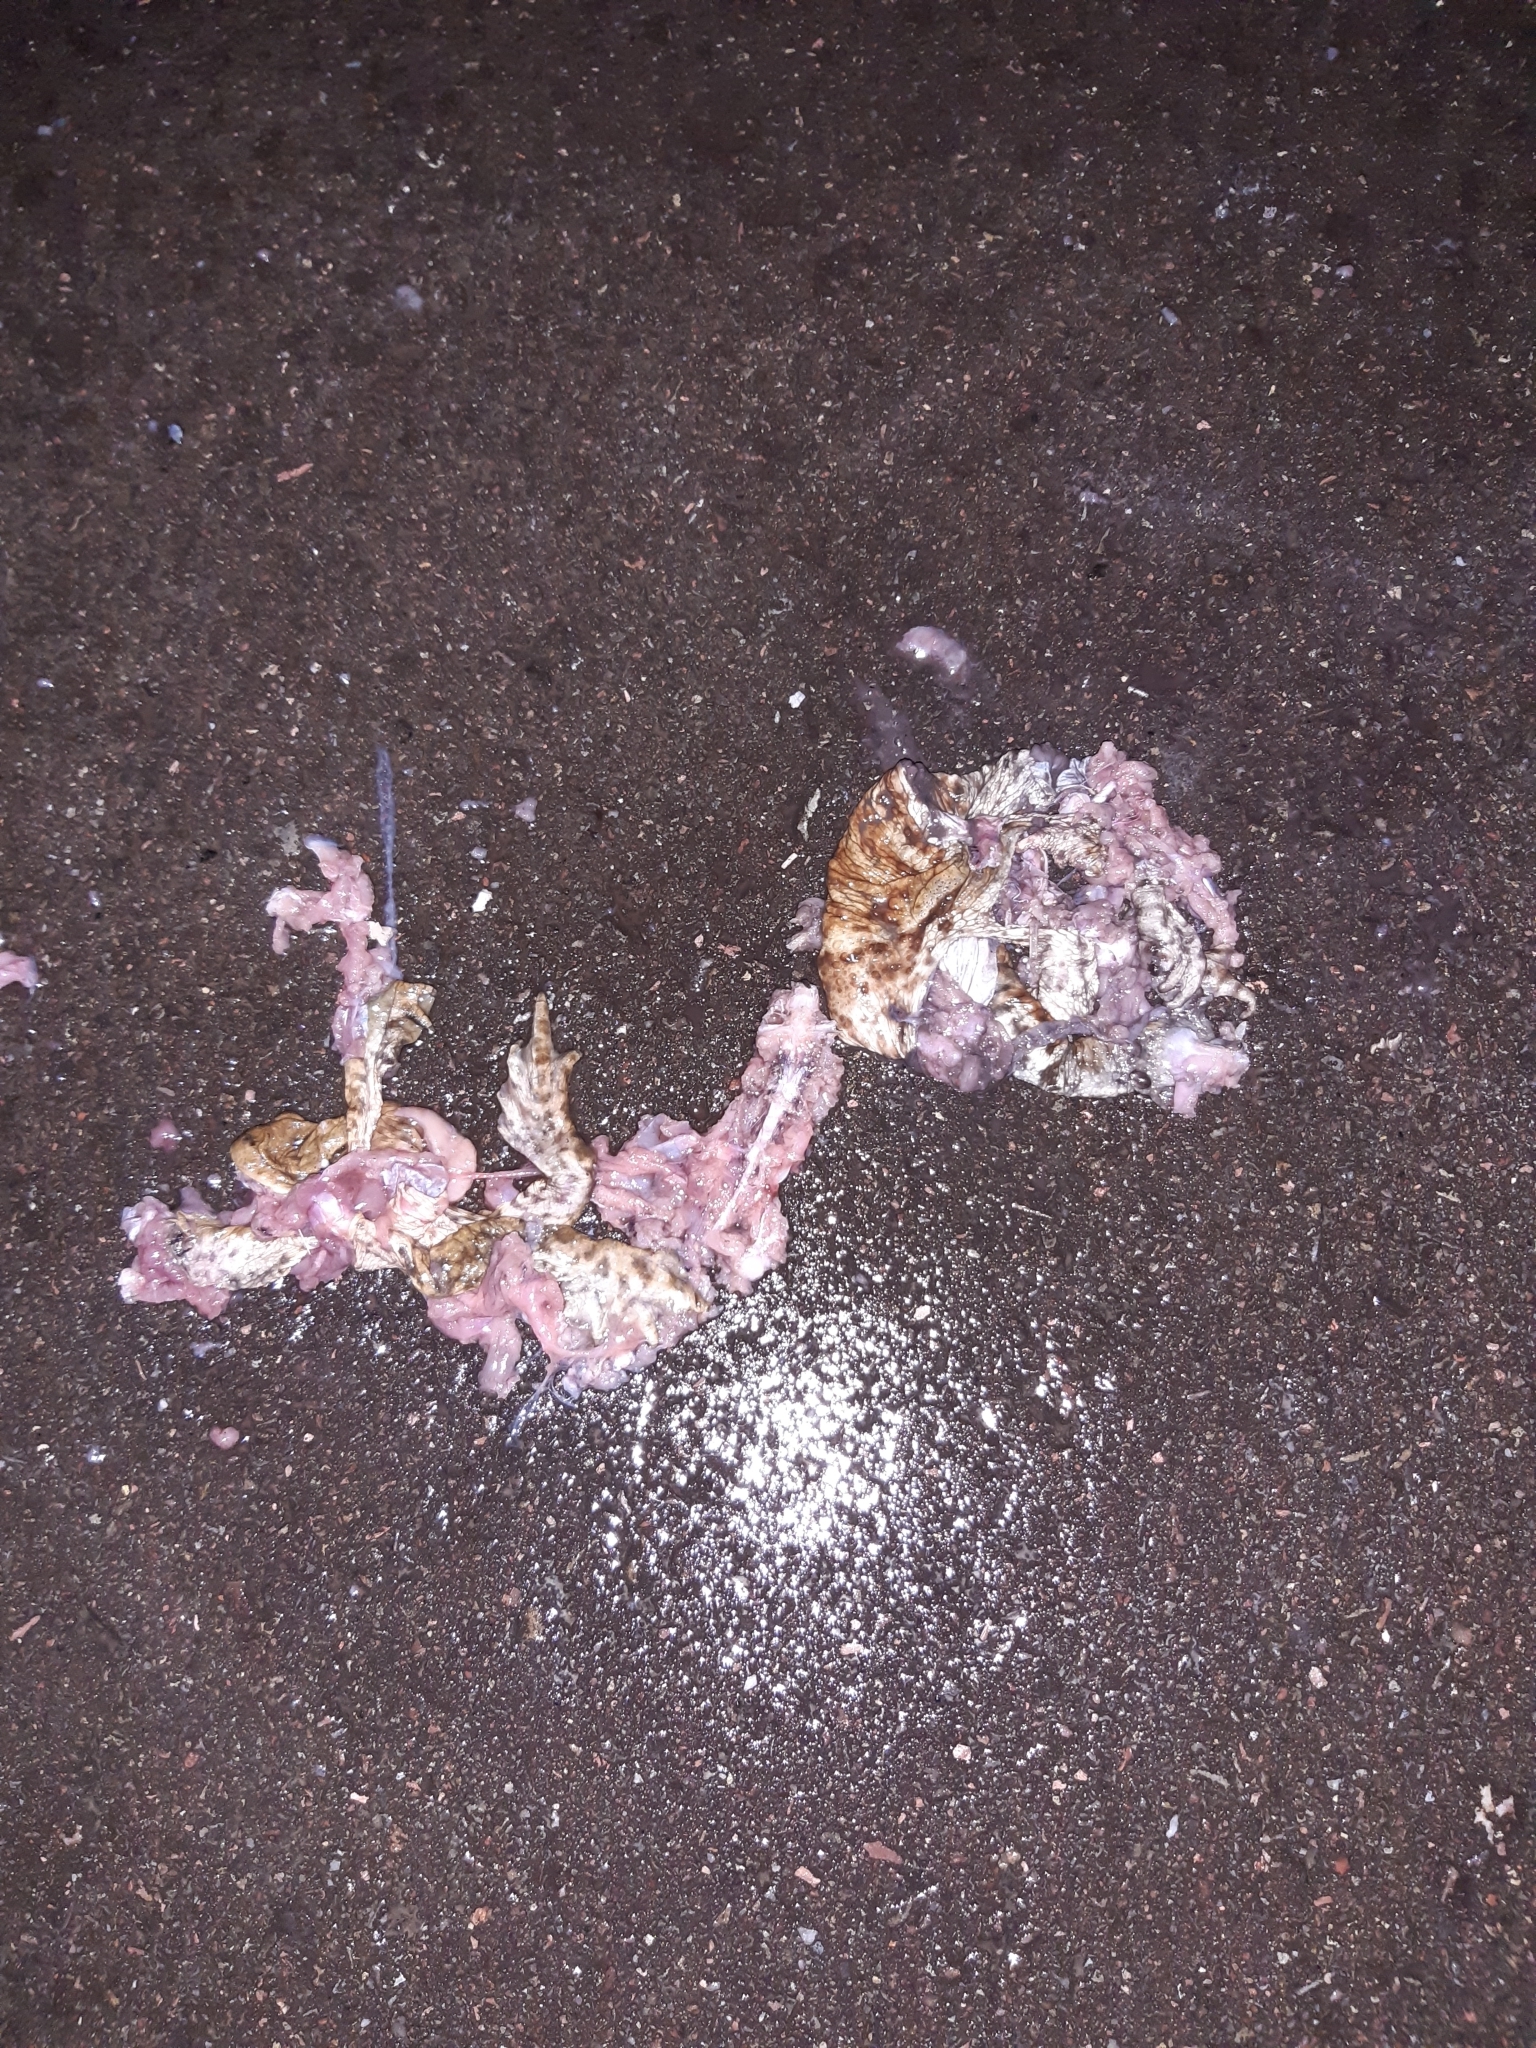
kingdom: Animalia
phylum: Chordata
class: Amphibia
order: Anura
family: Bufonidae
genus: Bufo
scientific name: Bufo bufo
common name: Common toad
